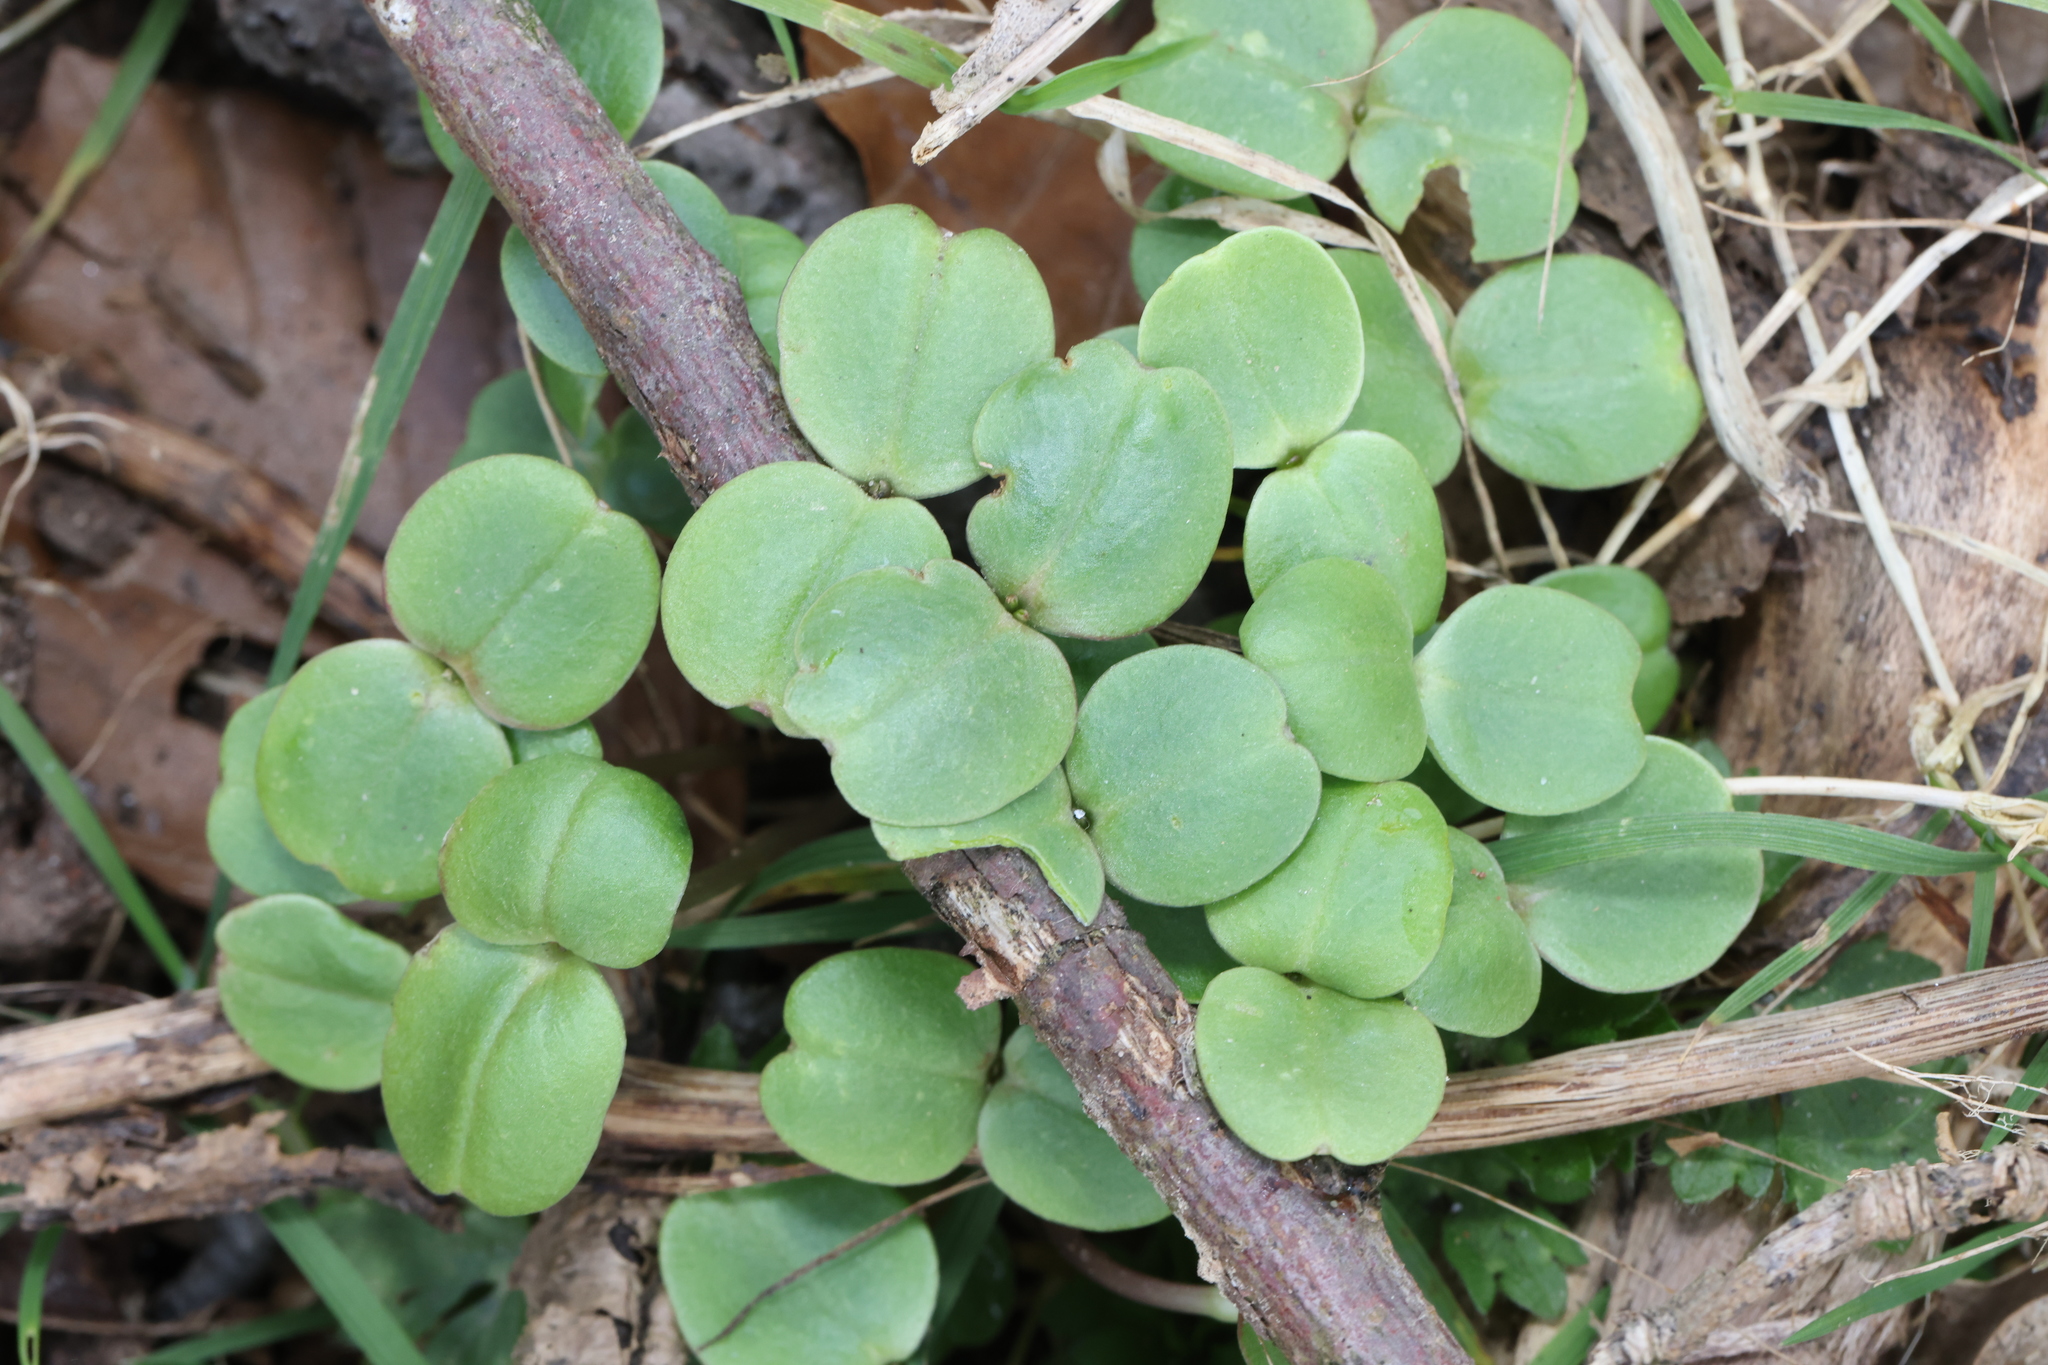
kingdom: Plantae
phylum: Tracheophyta
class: Magnoliopsida
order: Ericales
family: Balsaminaceae
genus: Impatiens
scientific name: Impatiens glandulifera
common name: Himalayan balsam
